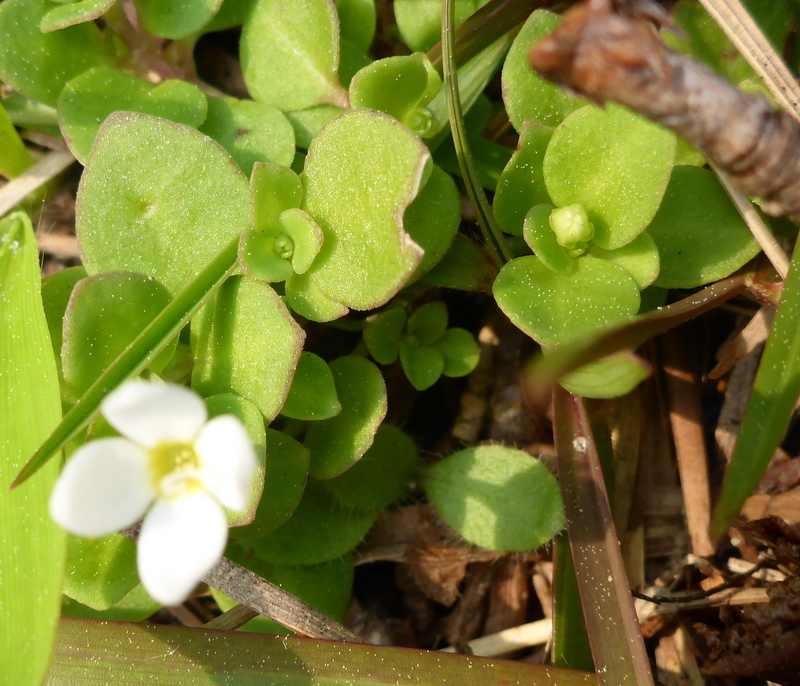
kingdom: Plantae
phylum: Tracheophyta
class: Magnoliopsida
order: Gentianales
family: Rubiaceae
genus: Houstonia
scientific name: Houstonia procumbens
